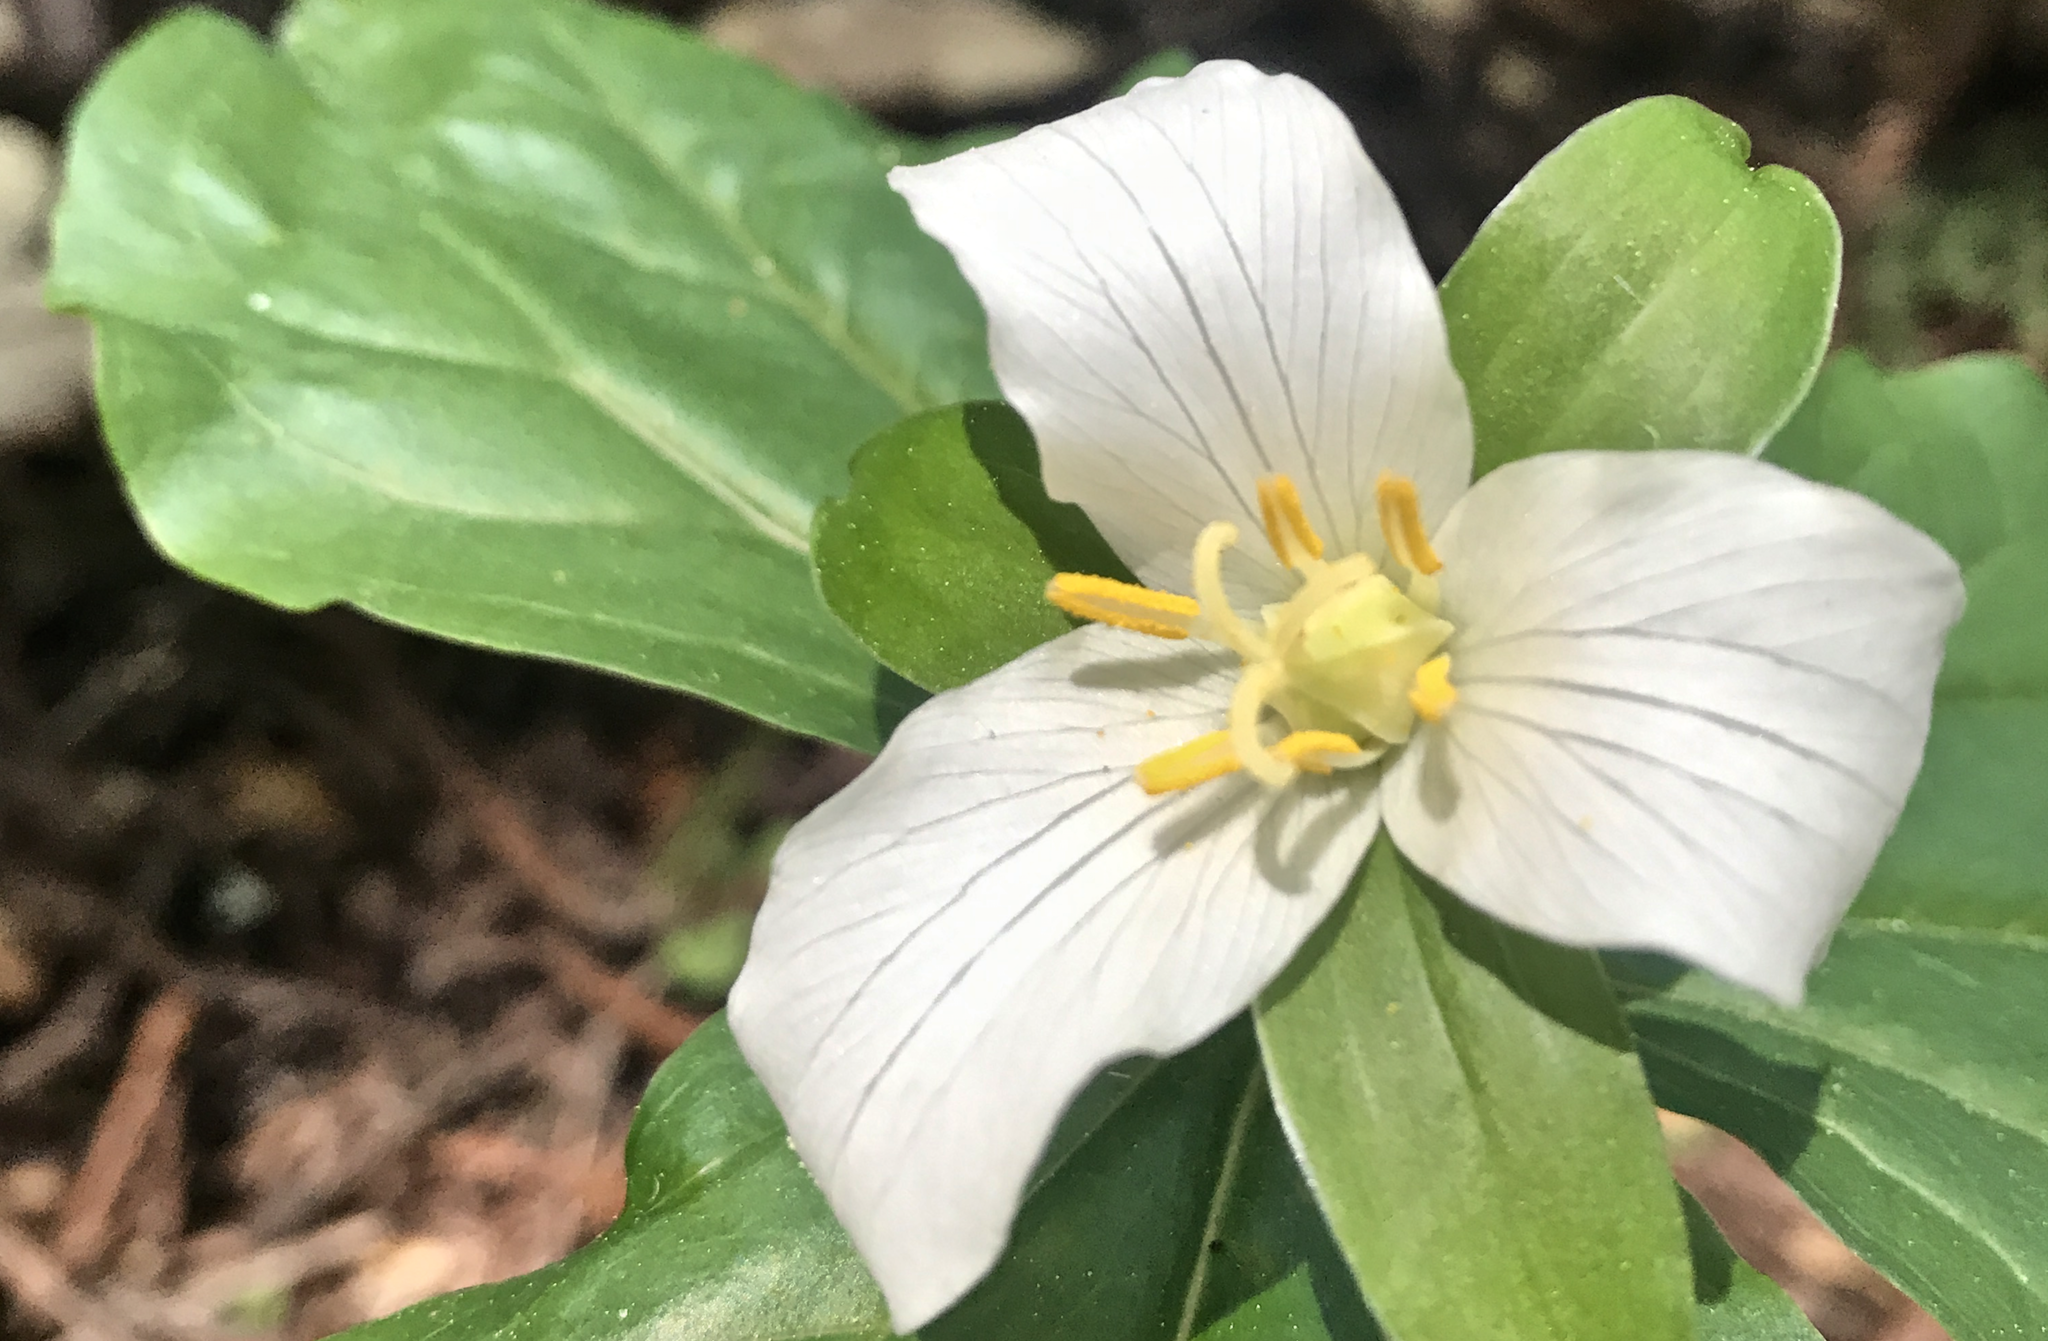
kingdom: Plantae
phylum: Tracheophyta
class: Liliopsida
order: Liliales
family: Melanthiaceae
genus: Trillium
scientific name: Trillium ovatum
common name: Pacific trillium
